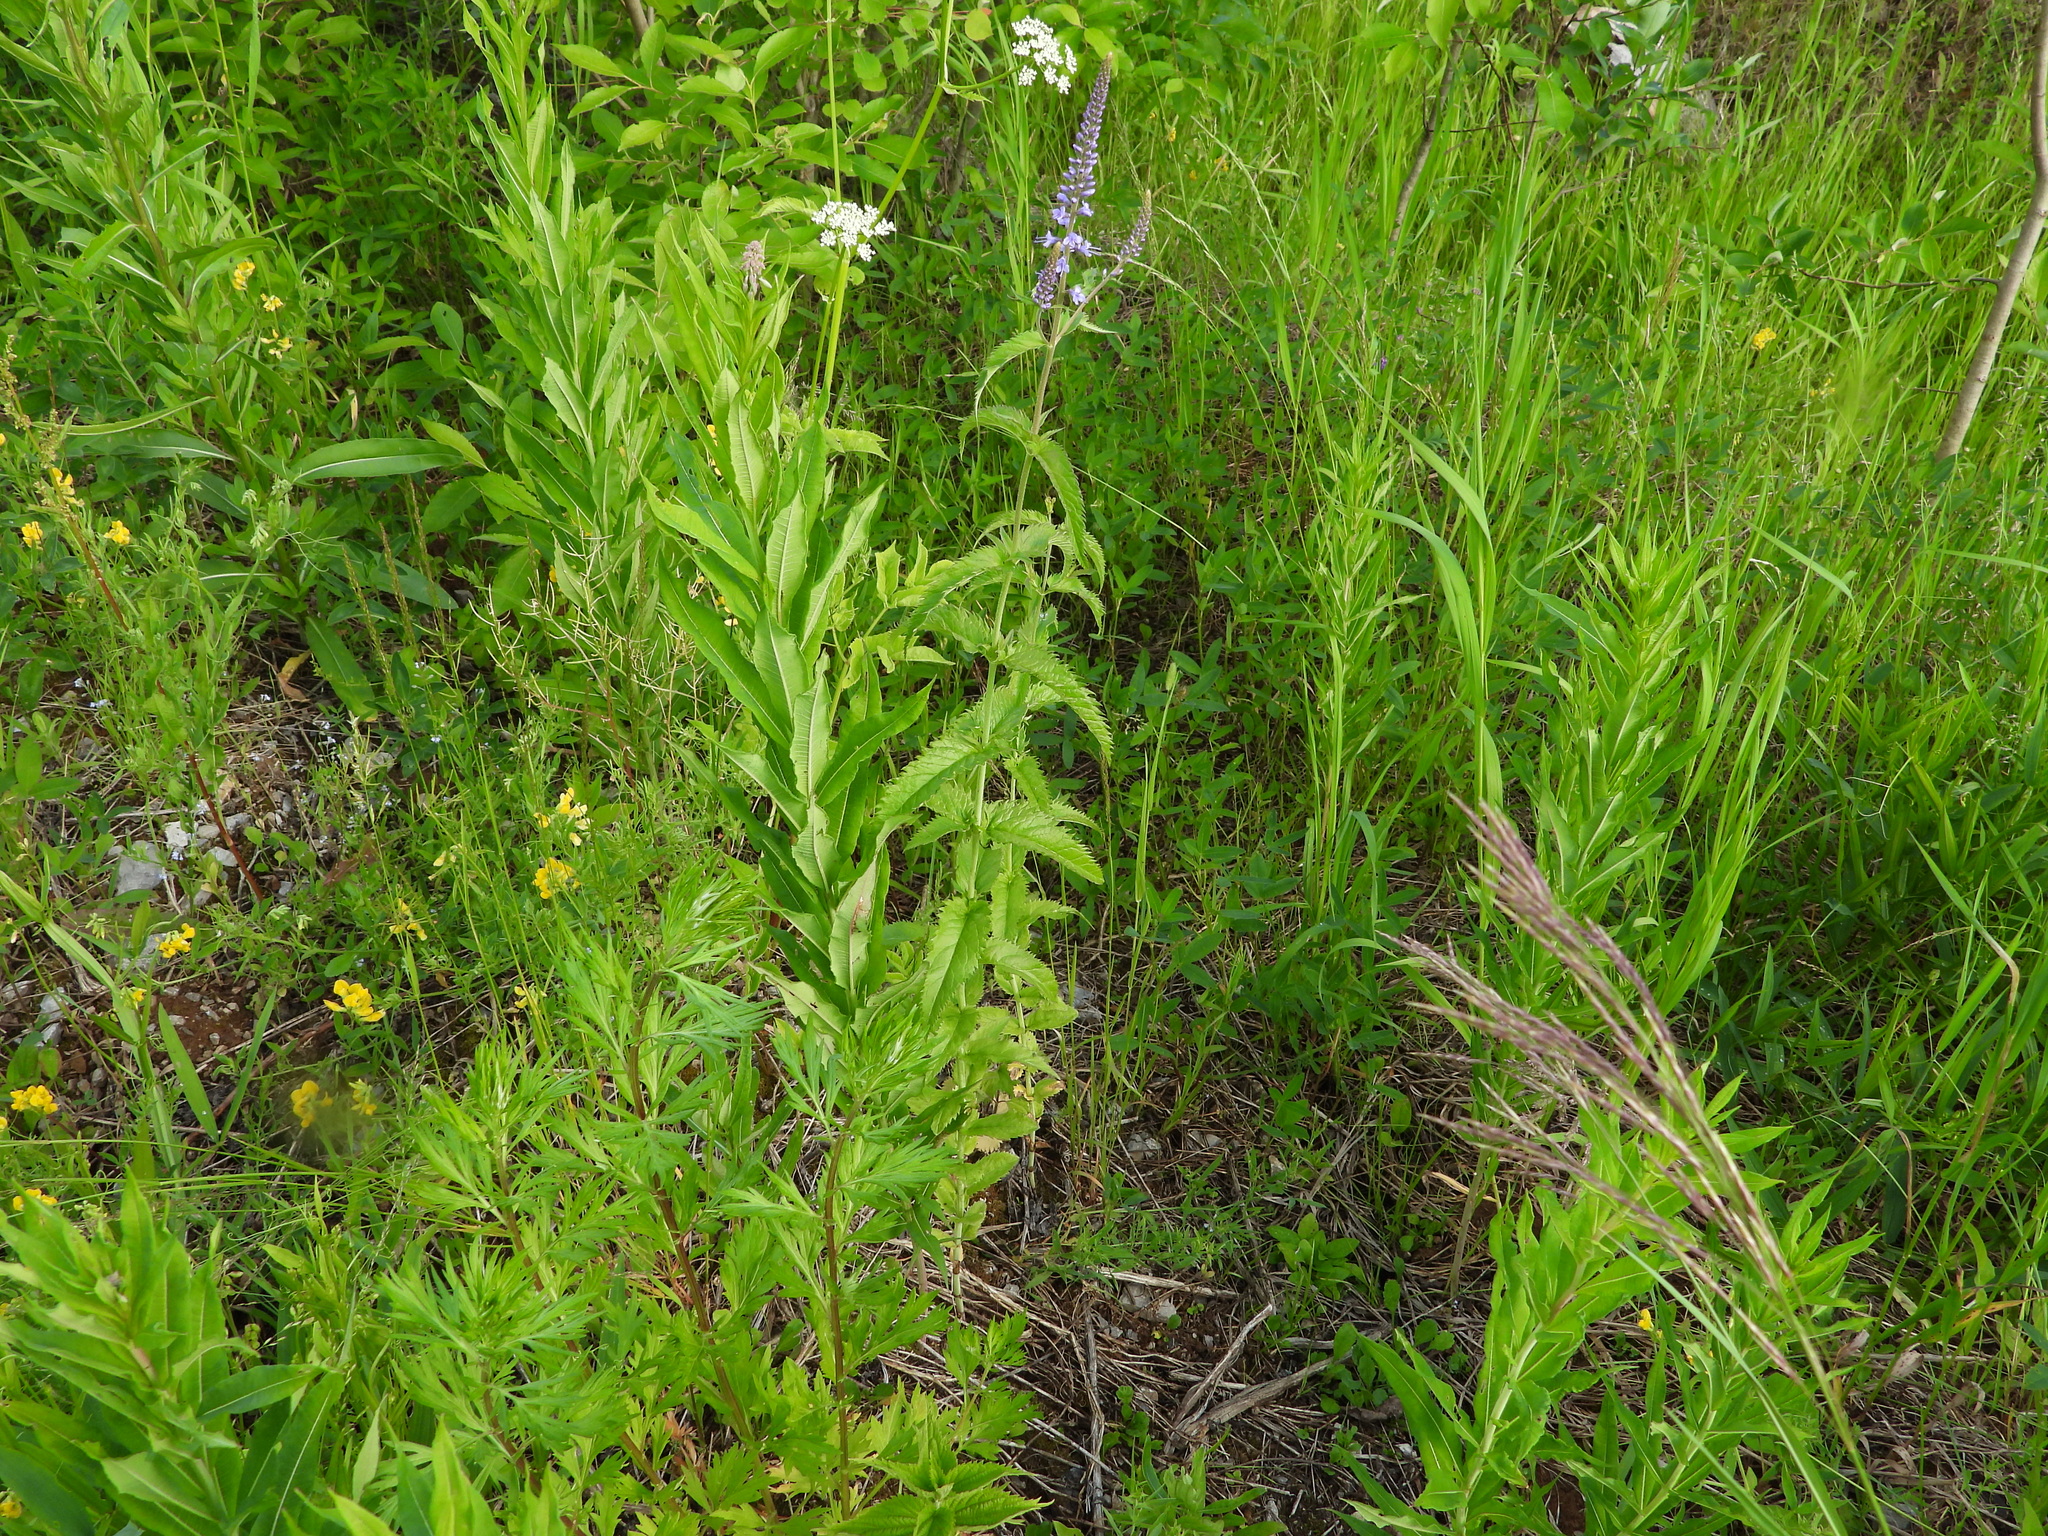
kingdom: Plantae
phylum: Tracheophyta
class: Magnoliopsida
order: Lamiales
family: Plantaginaceae
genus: Veronica
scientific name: Veronica longifolia
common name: Garden speedwell
